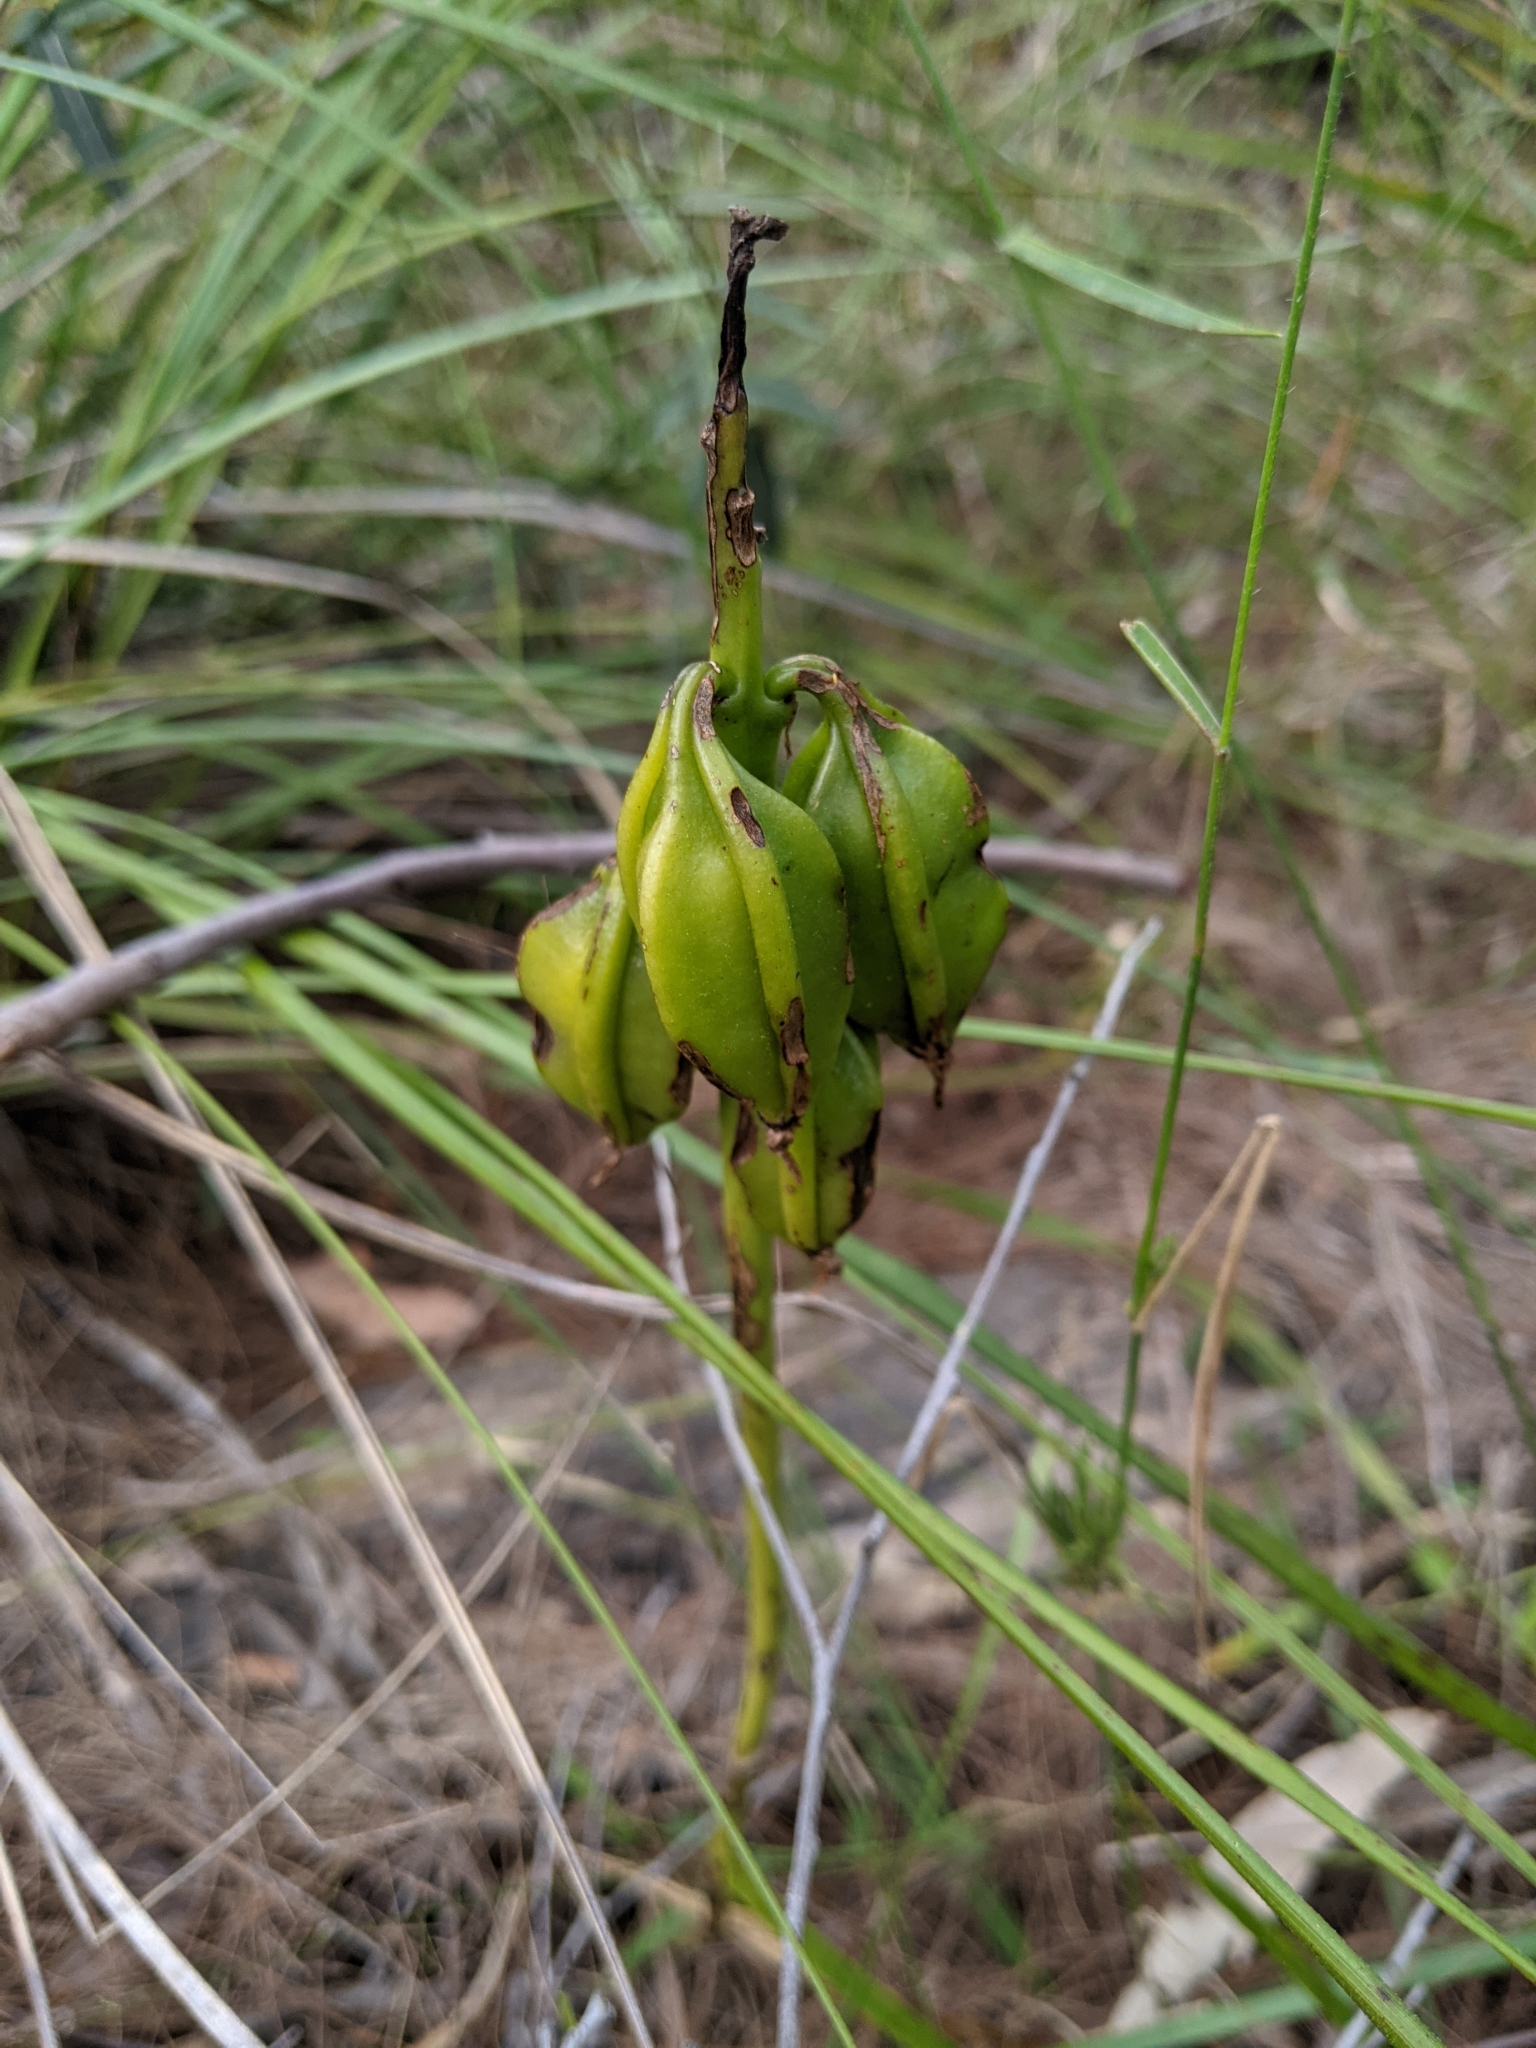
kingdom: Plantae
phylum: Tracheophyta
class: Liliopsida
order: Asparagales
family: Orchidaceae
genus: Eulophia
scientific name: Eulophia cernua
